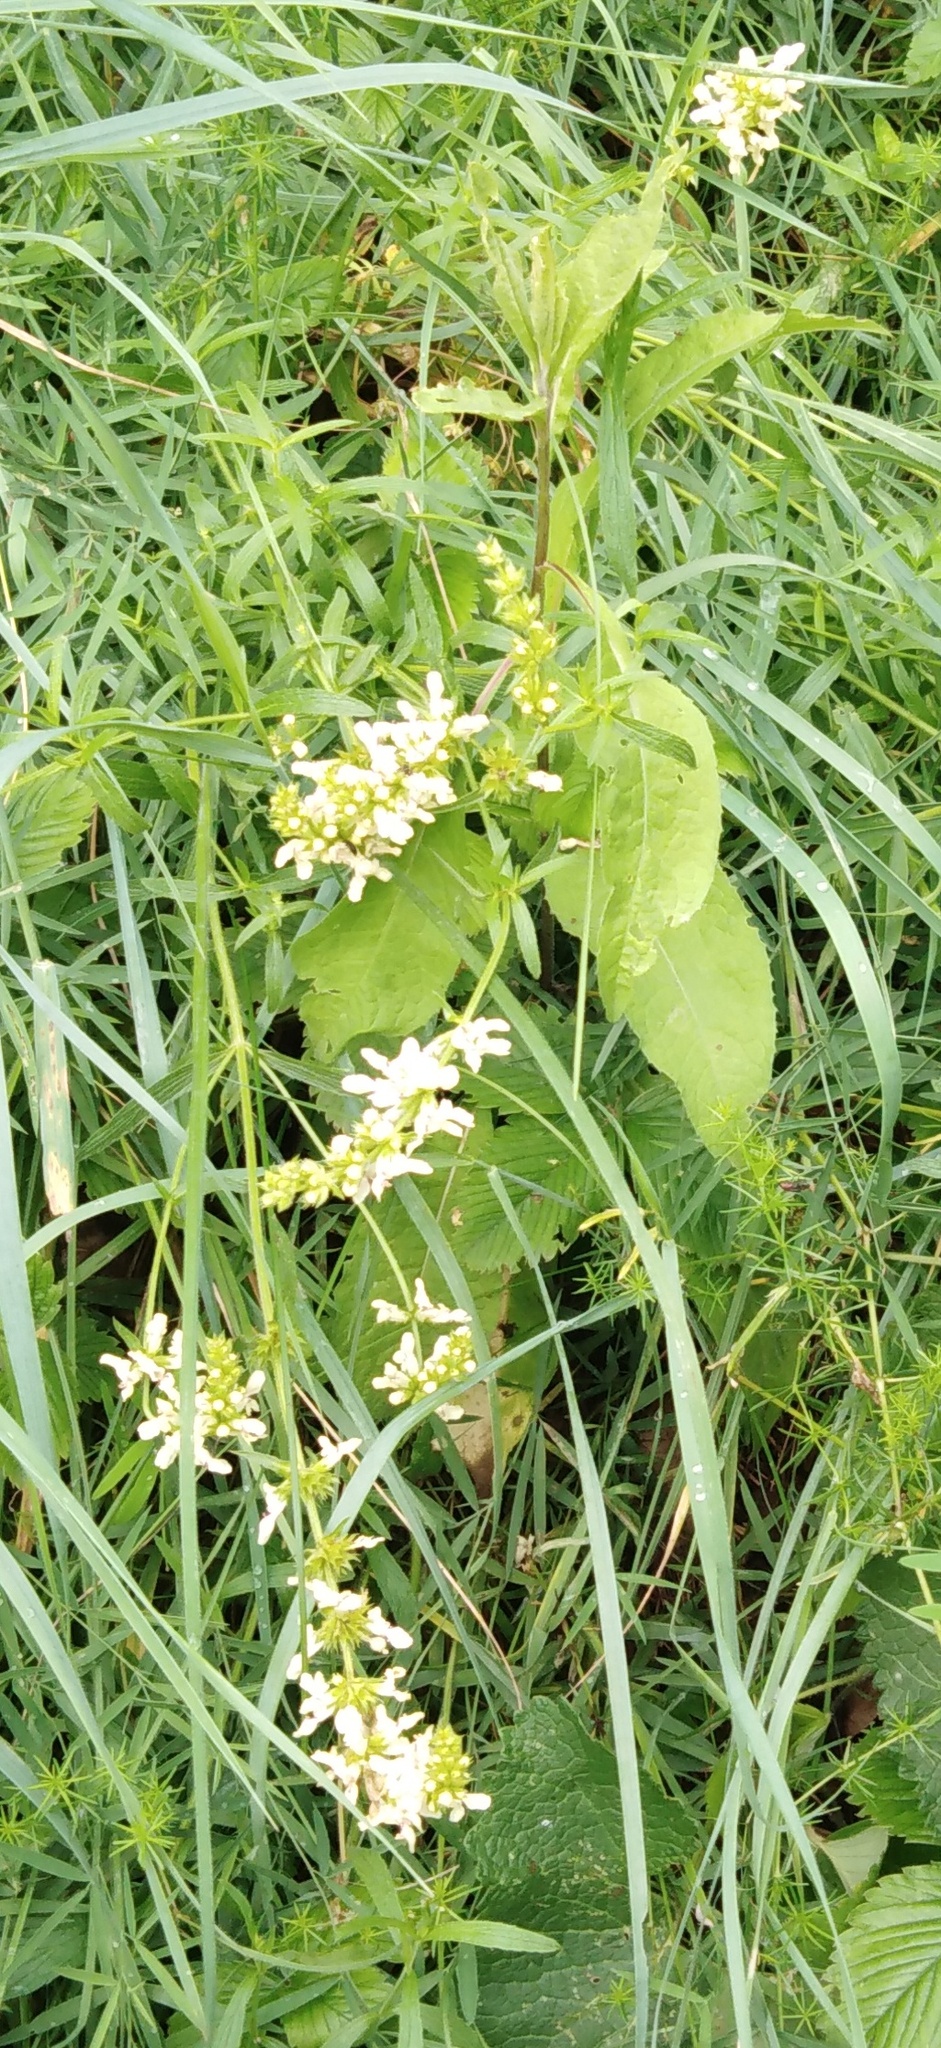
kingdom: Plantae
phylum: Tracheophyta
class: Magnoliopsida
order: Lamiales
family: Lamiaceae
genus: Stachys
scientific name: Stachys recta
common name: Perennial yellow-woundwort
